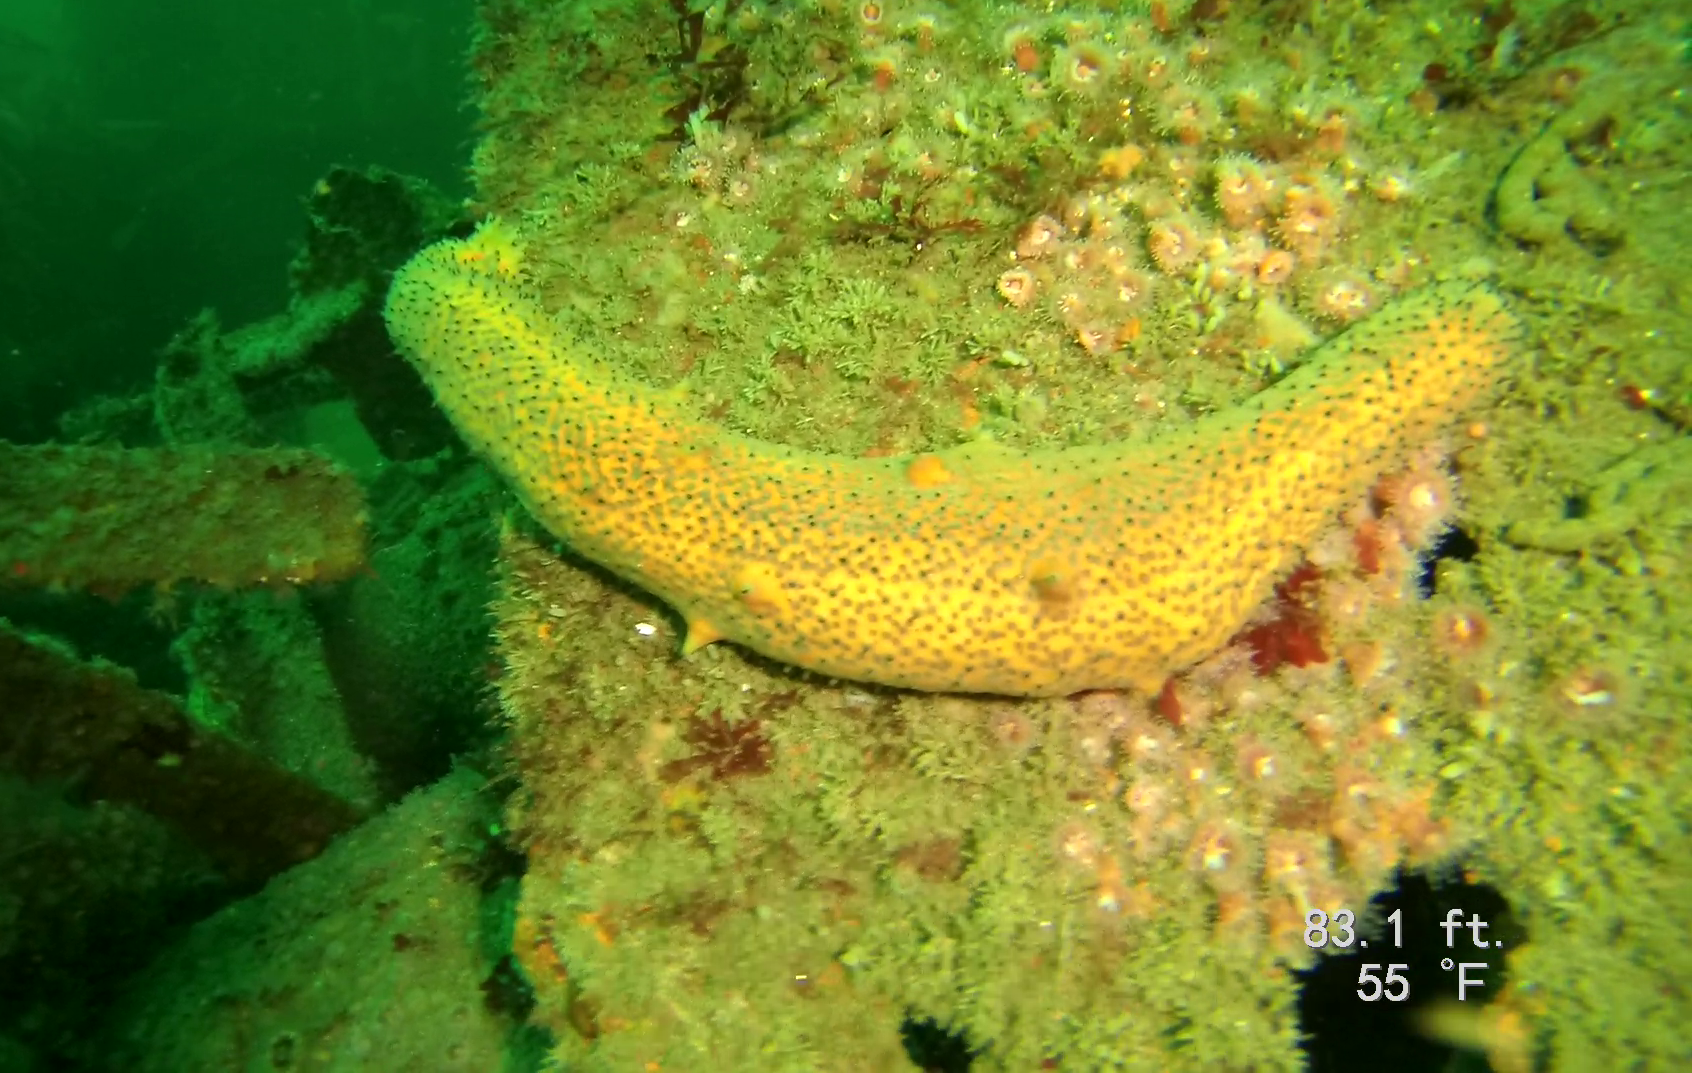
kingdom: Animalia
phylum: Echinodermata
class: Holothuroidea
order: Synallactida
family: Stichopodidae
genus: Apostichopus
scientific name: Apostichopus parvimensis
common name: Warty sea cucumber
